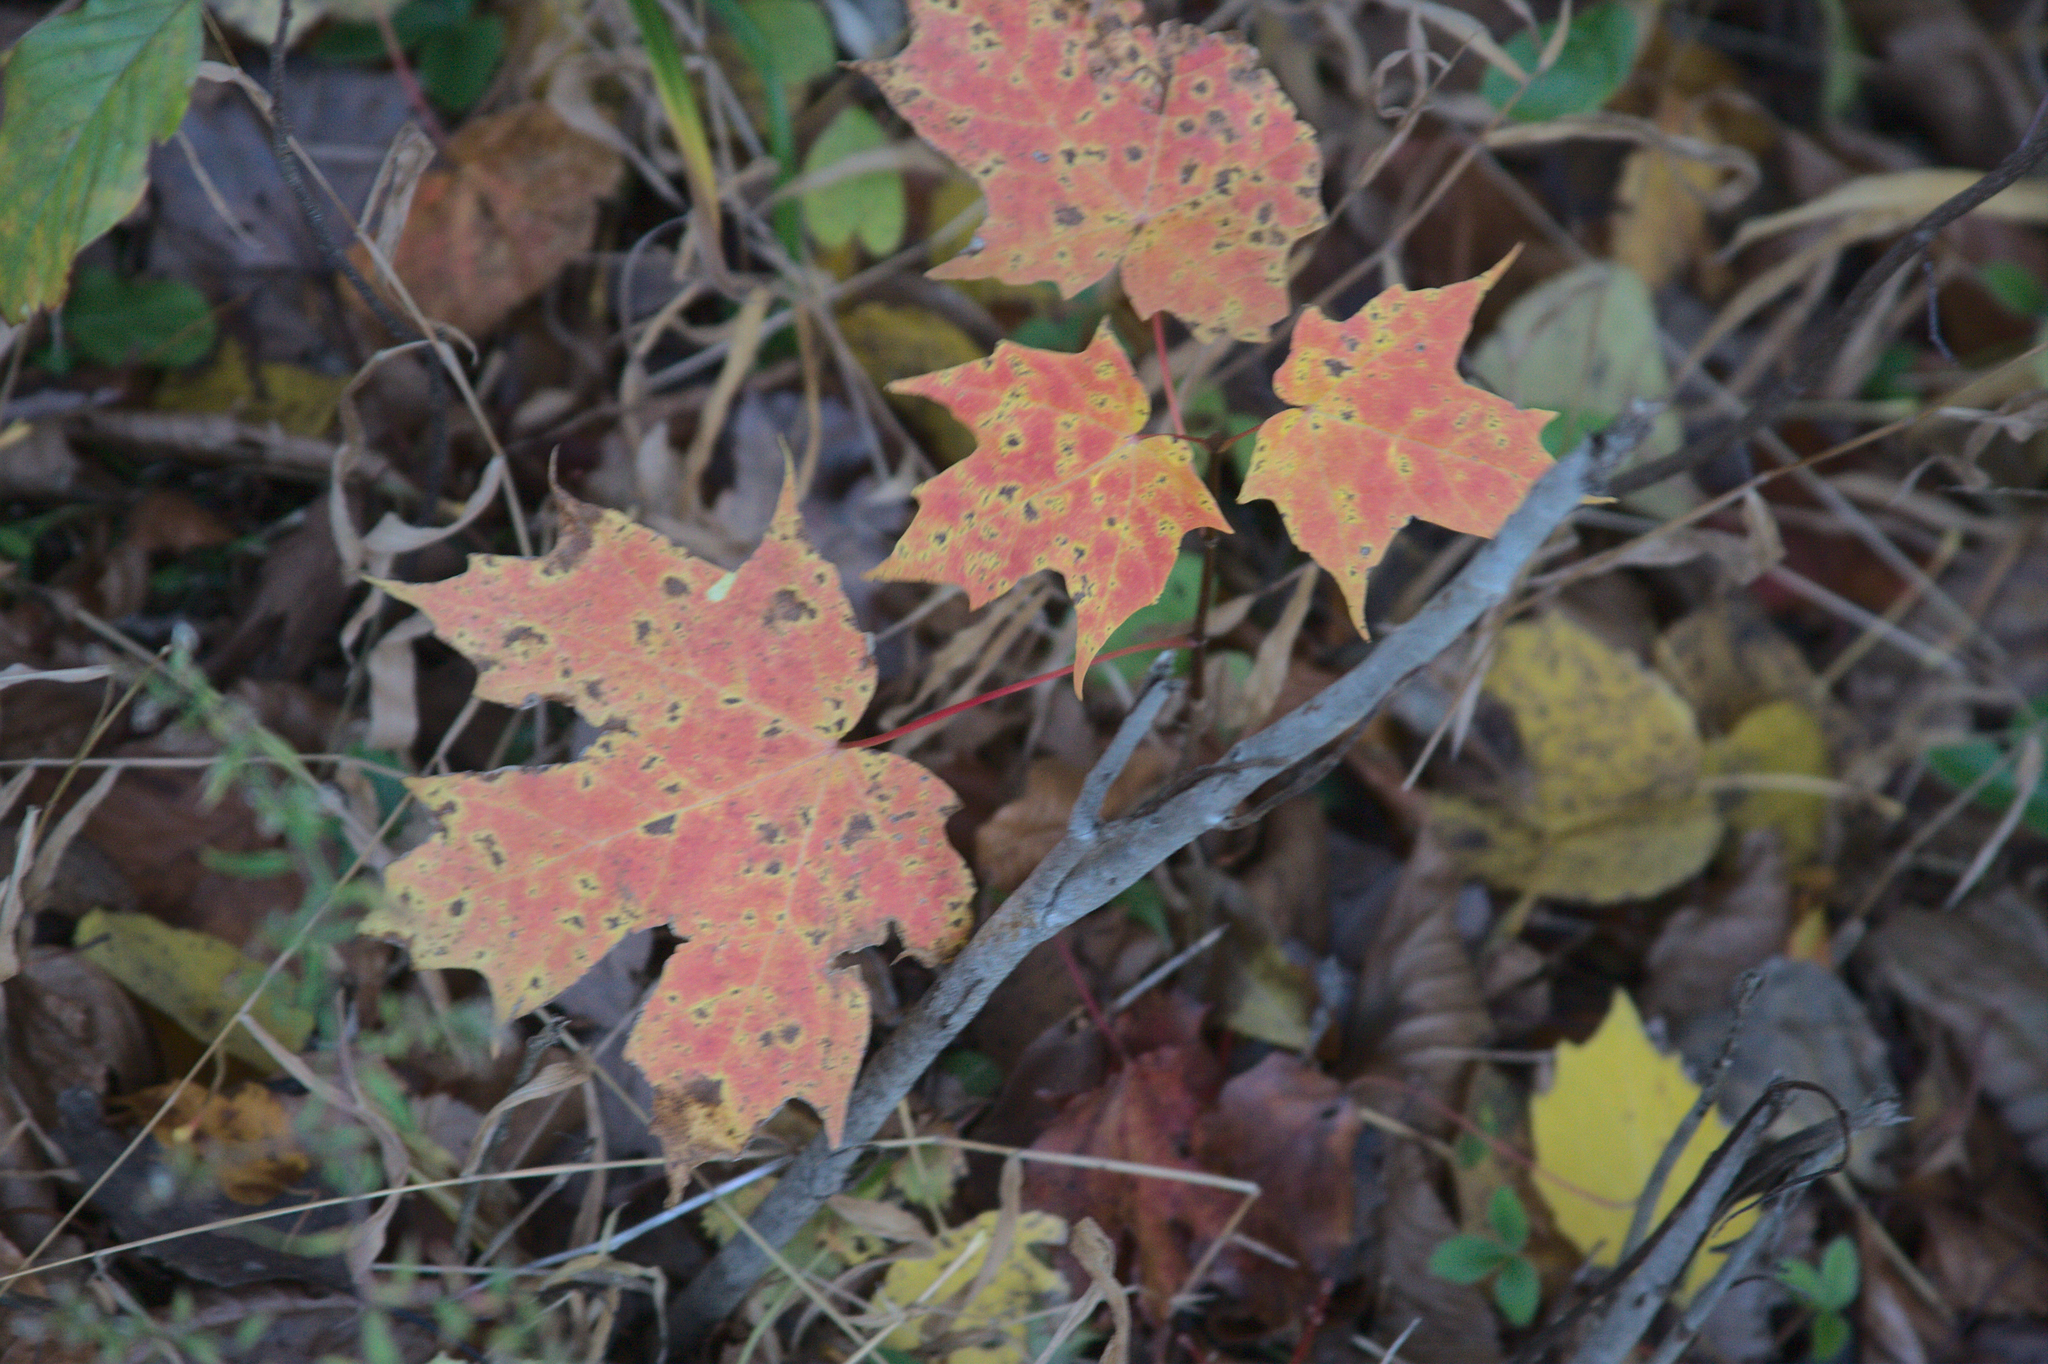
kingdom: Plantae
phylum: Tracheophyta
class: Magnoliopsida
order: Sapindales
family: Sapindaceae
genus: Acer
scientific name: Acer saccharum
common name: Sugar maple
